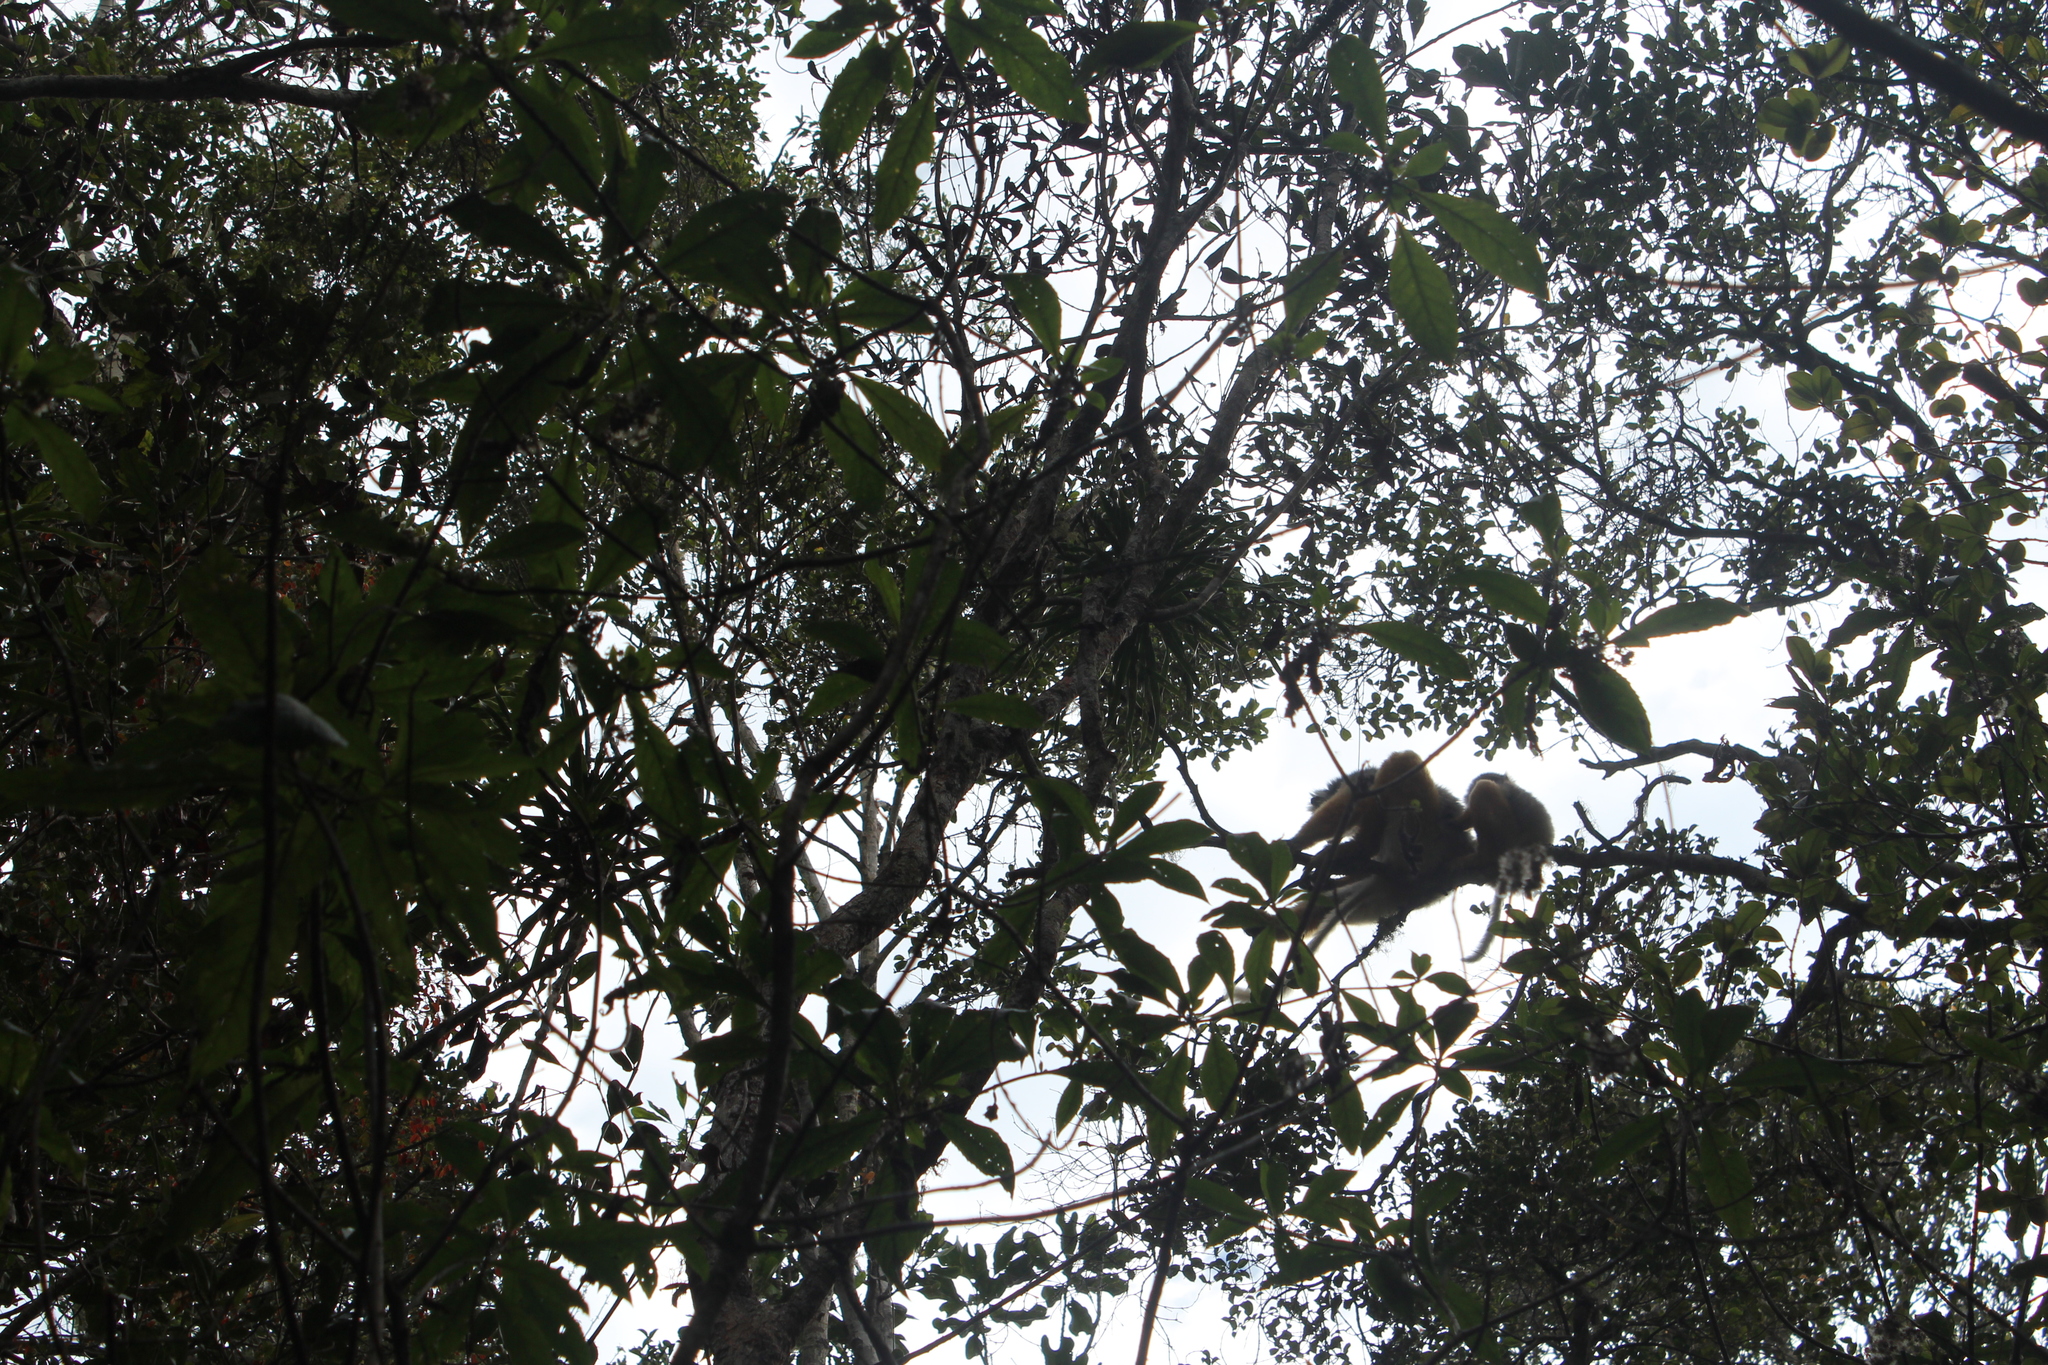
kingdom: Animalia
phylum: Chordata
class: Mammalia
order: Primates
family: Indriidae
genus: Propithecus
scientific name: Propithecus diadema
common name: Diademed sifaka
